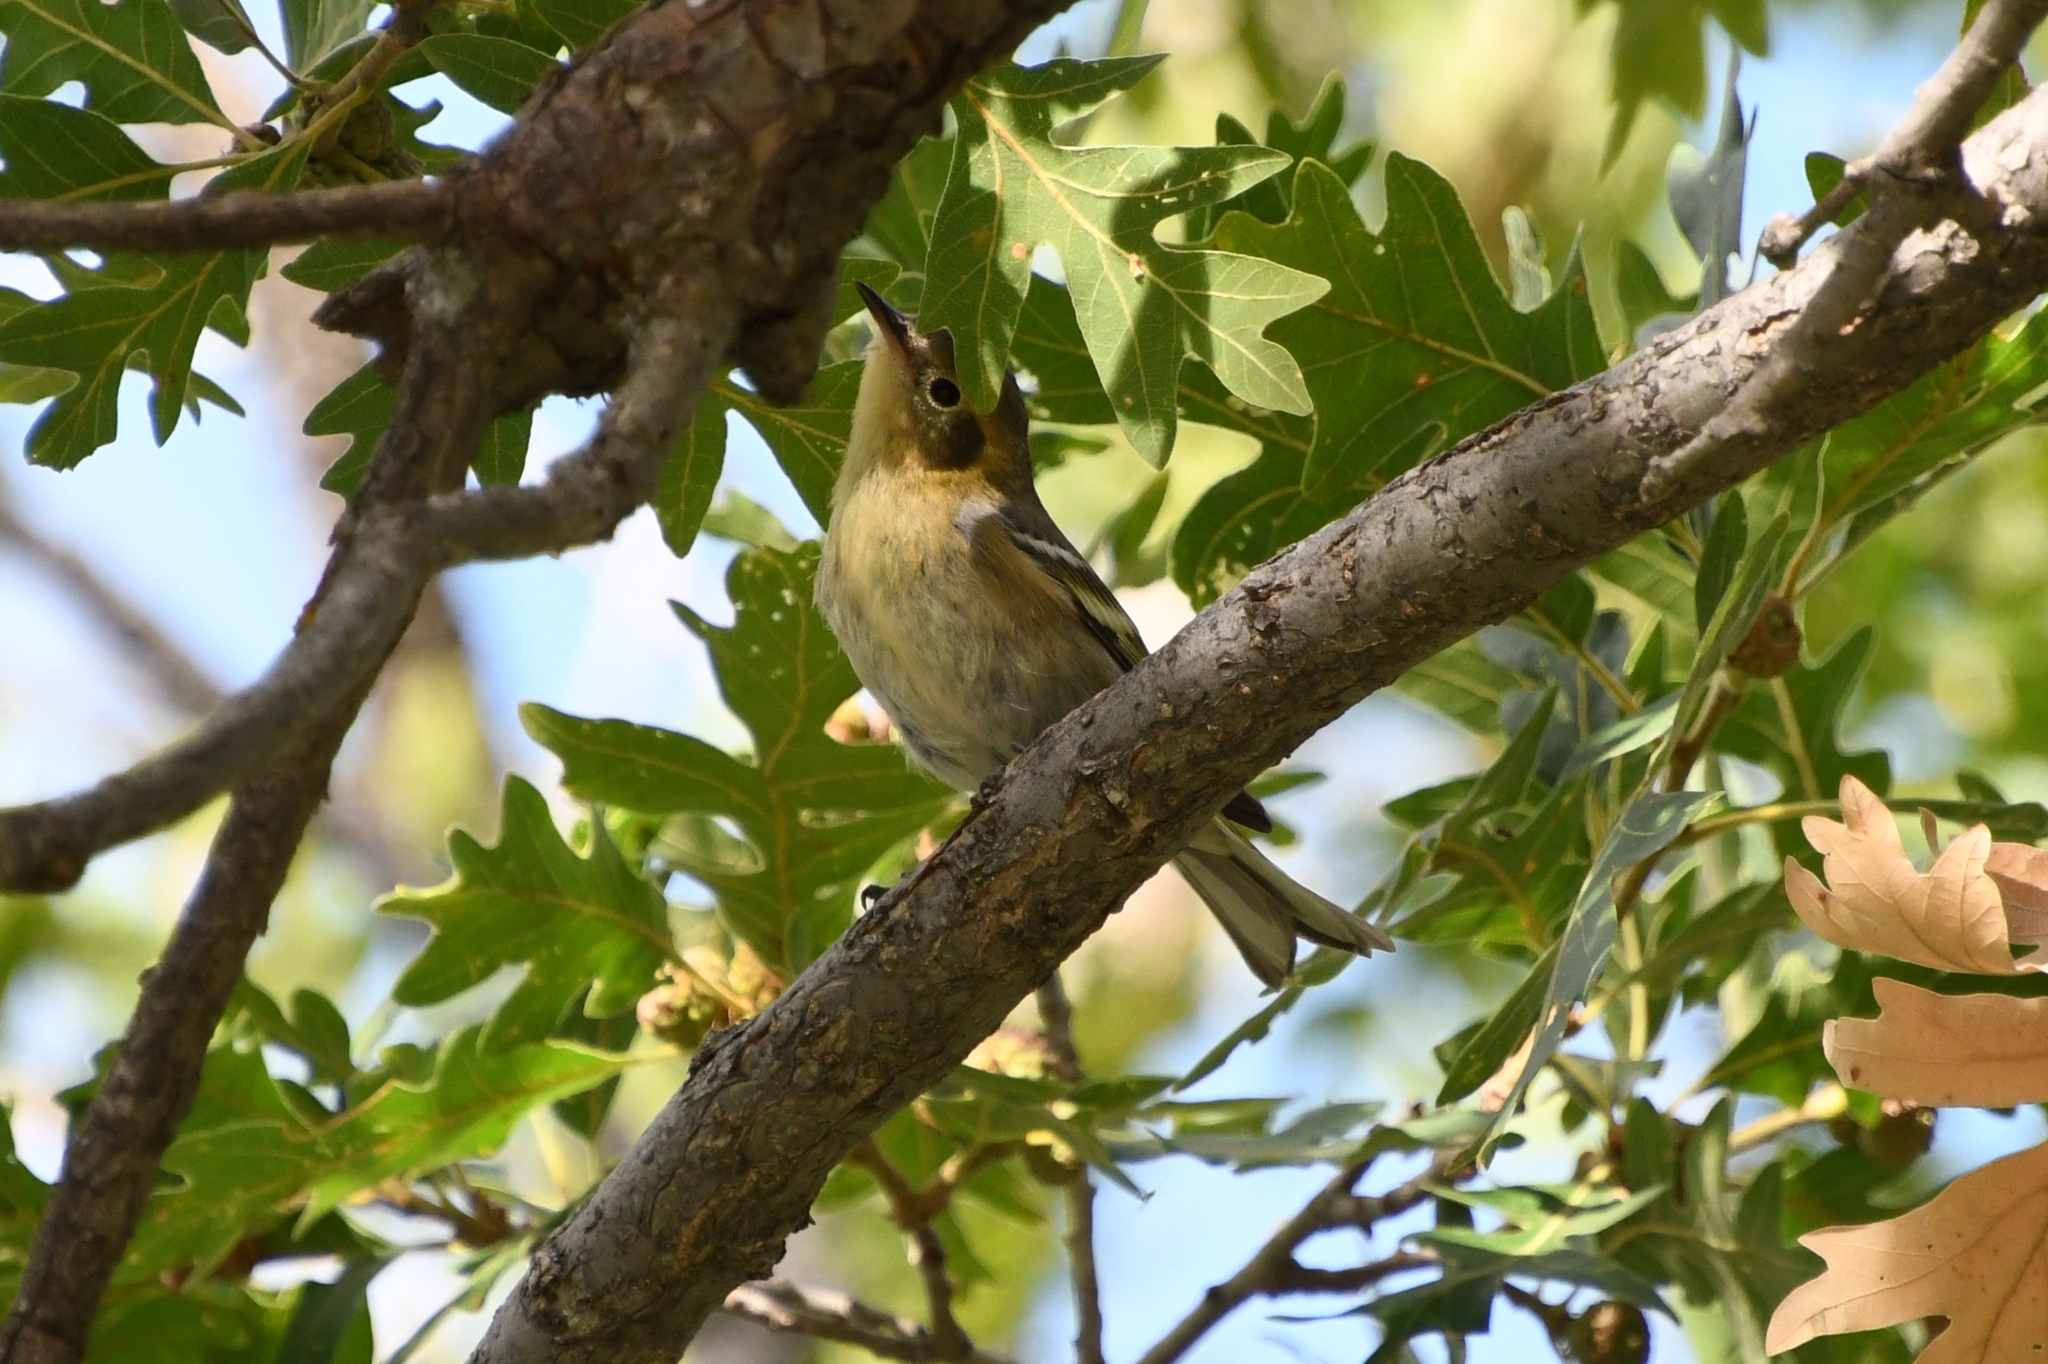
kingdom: Animalia
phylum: Chordata
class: Aves
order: Passeriformes
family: Peucedramidae
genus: Peucedramus
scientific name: Peucedramus taeniatus
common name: Olive warbler
